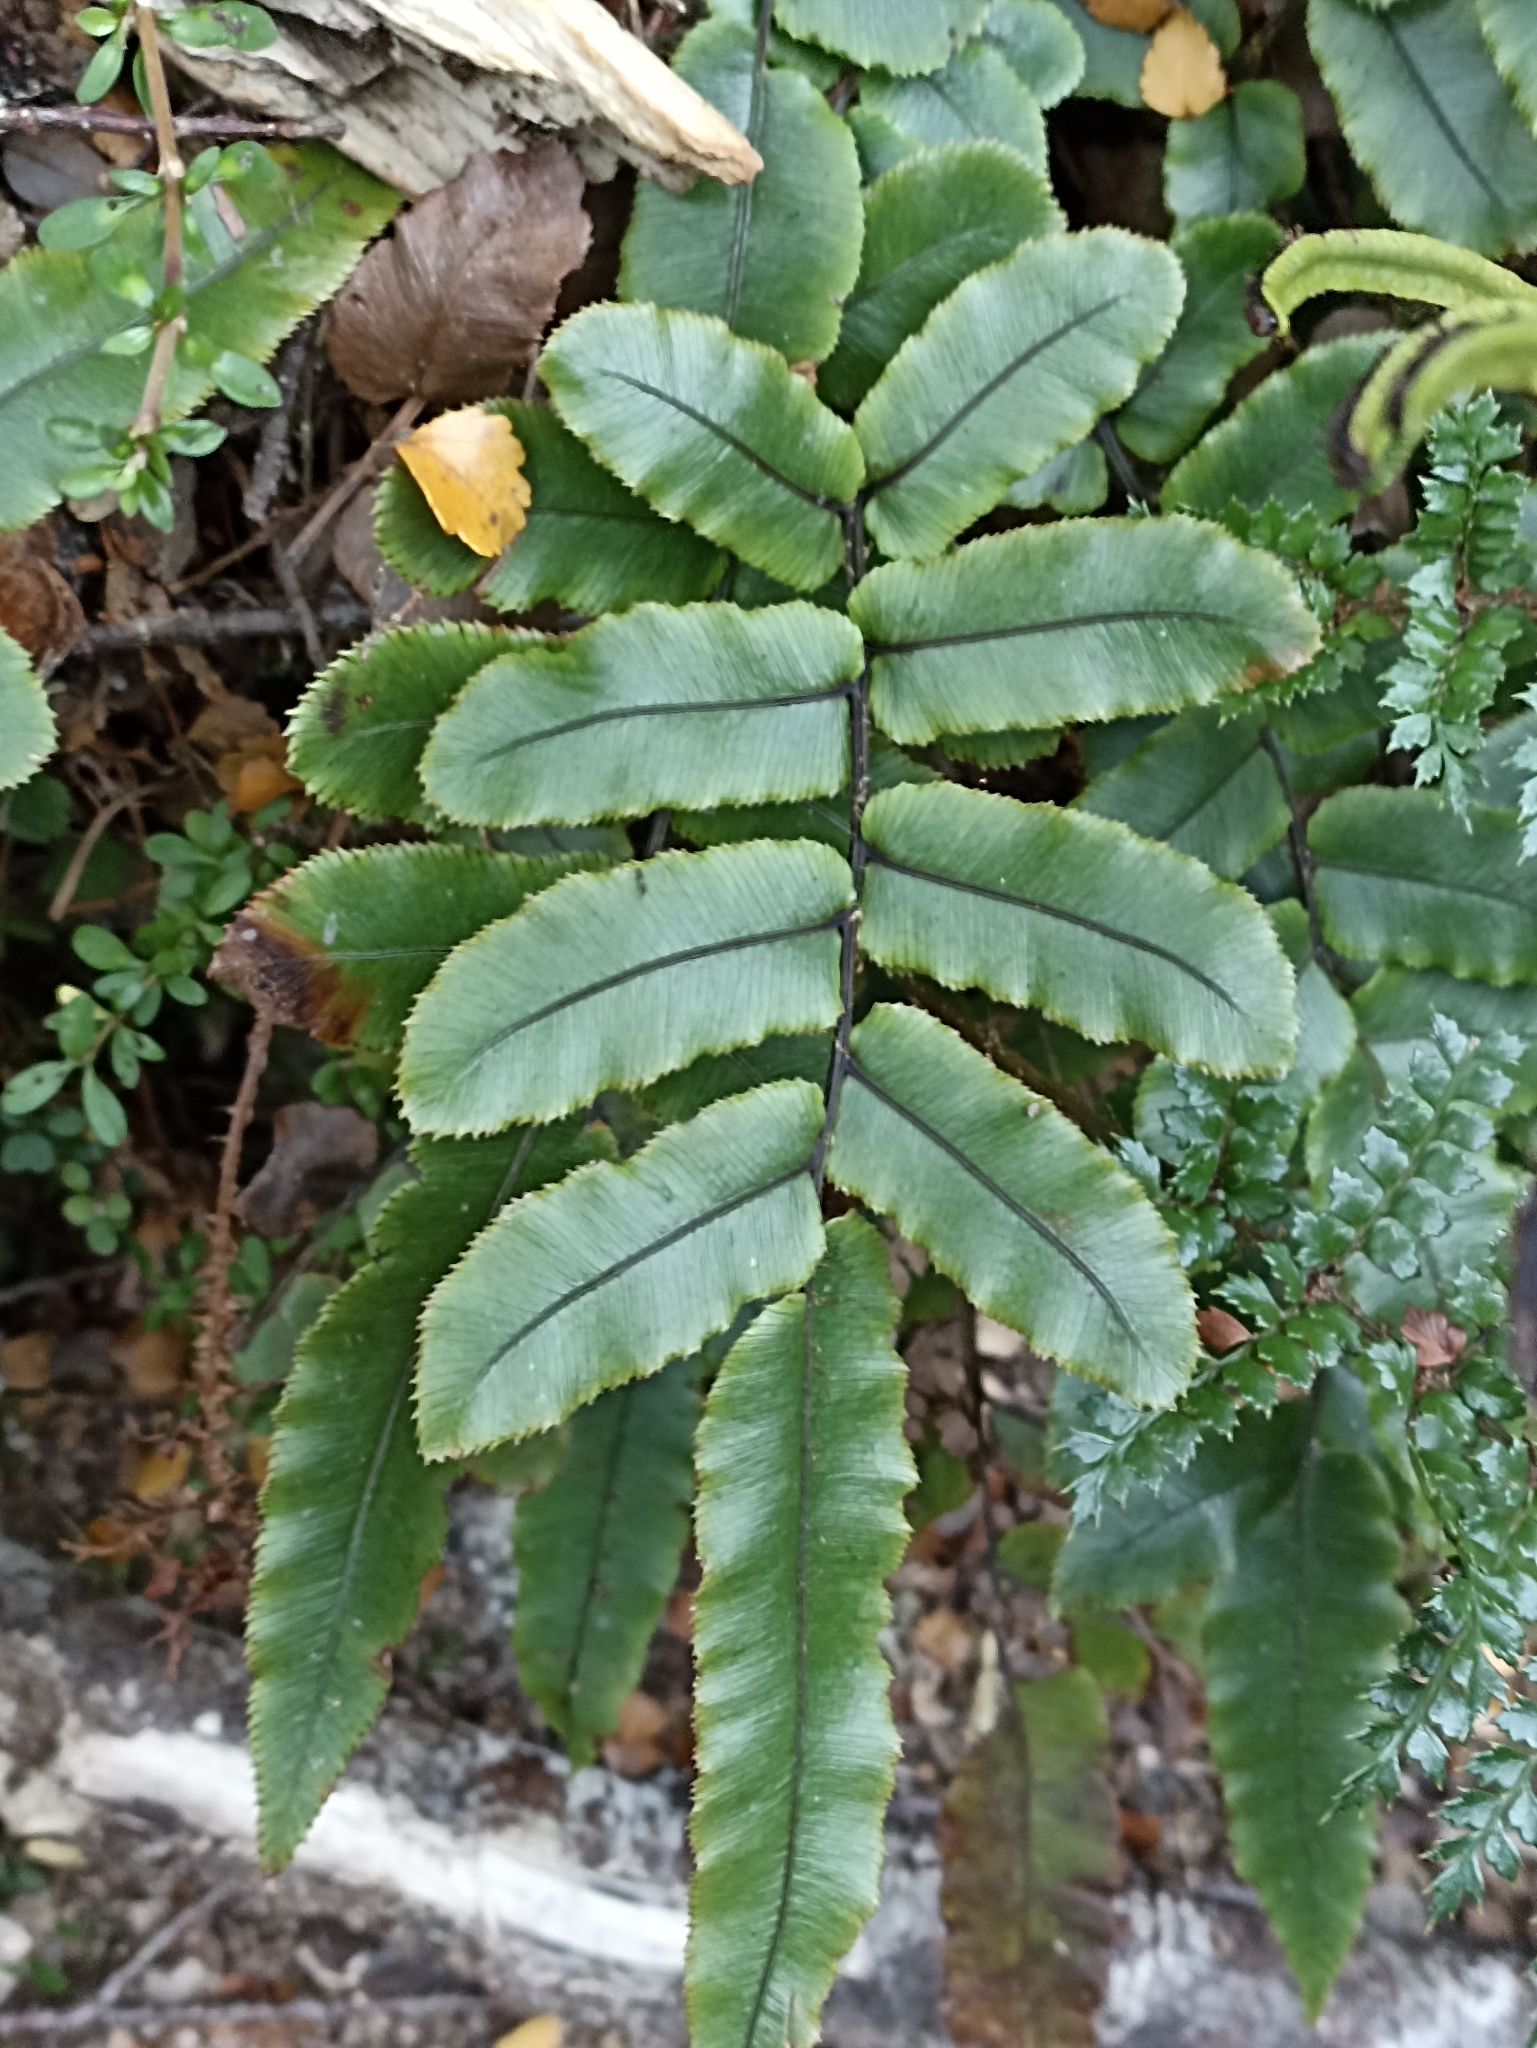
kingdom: Plantae
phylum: Tracheophyta
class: Polypodiopsida
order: Polypodiales
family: Blechnaceae
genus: Parablechnum
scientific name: Parablechnum procerum
